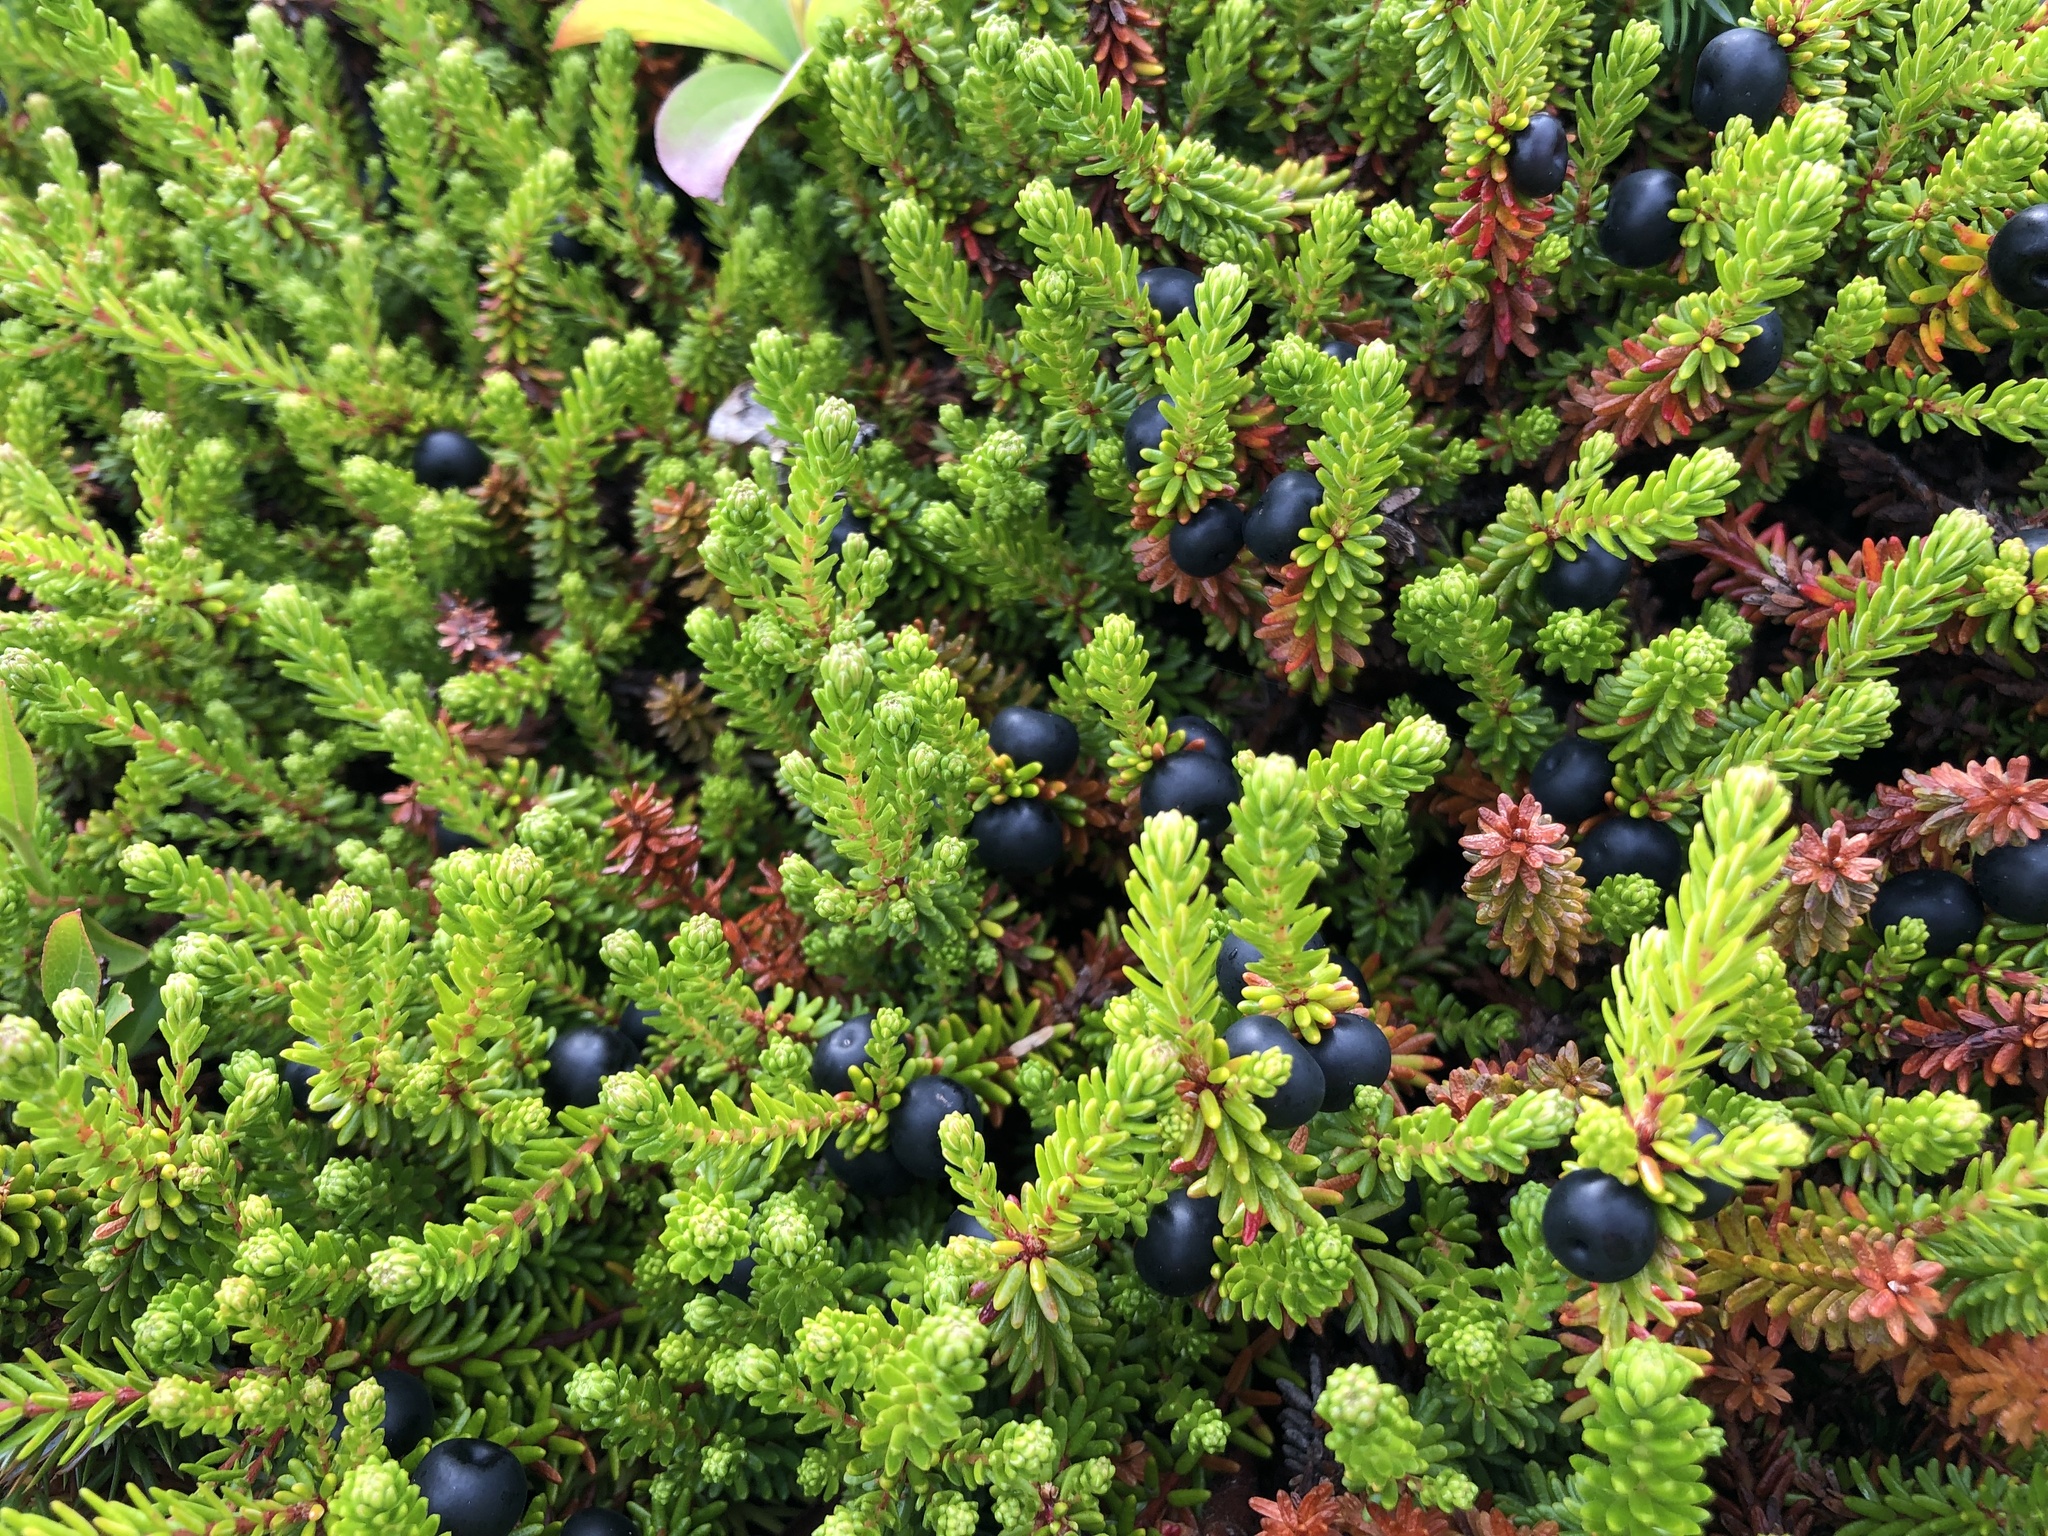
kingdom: Plantae
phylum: Tracheophyta
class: Magnoliopsida
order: Ericales
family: Ericaceae
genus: Empetrum
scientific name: Empetrum nigrum
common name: Black crowberry
